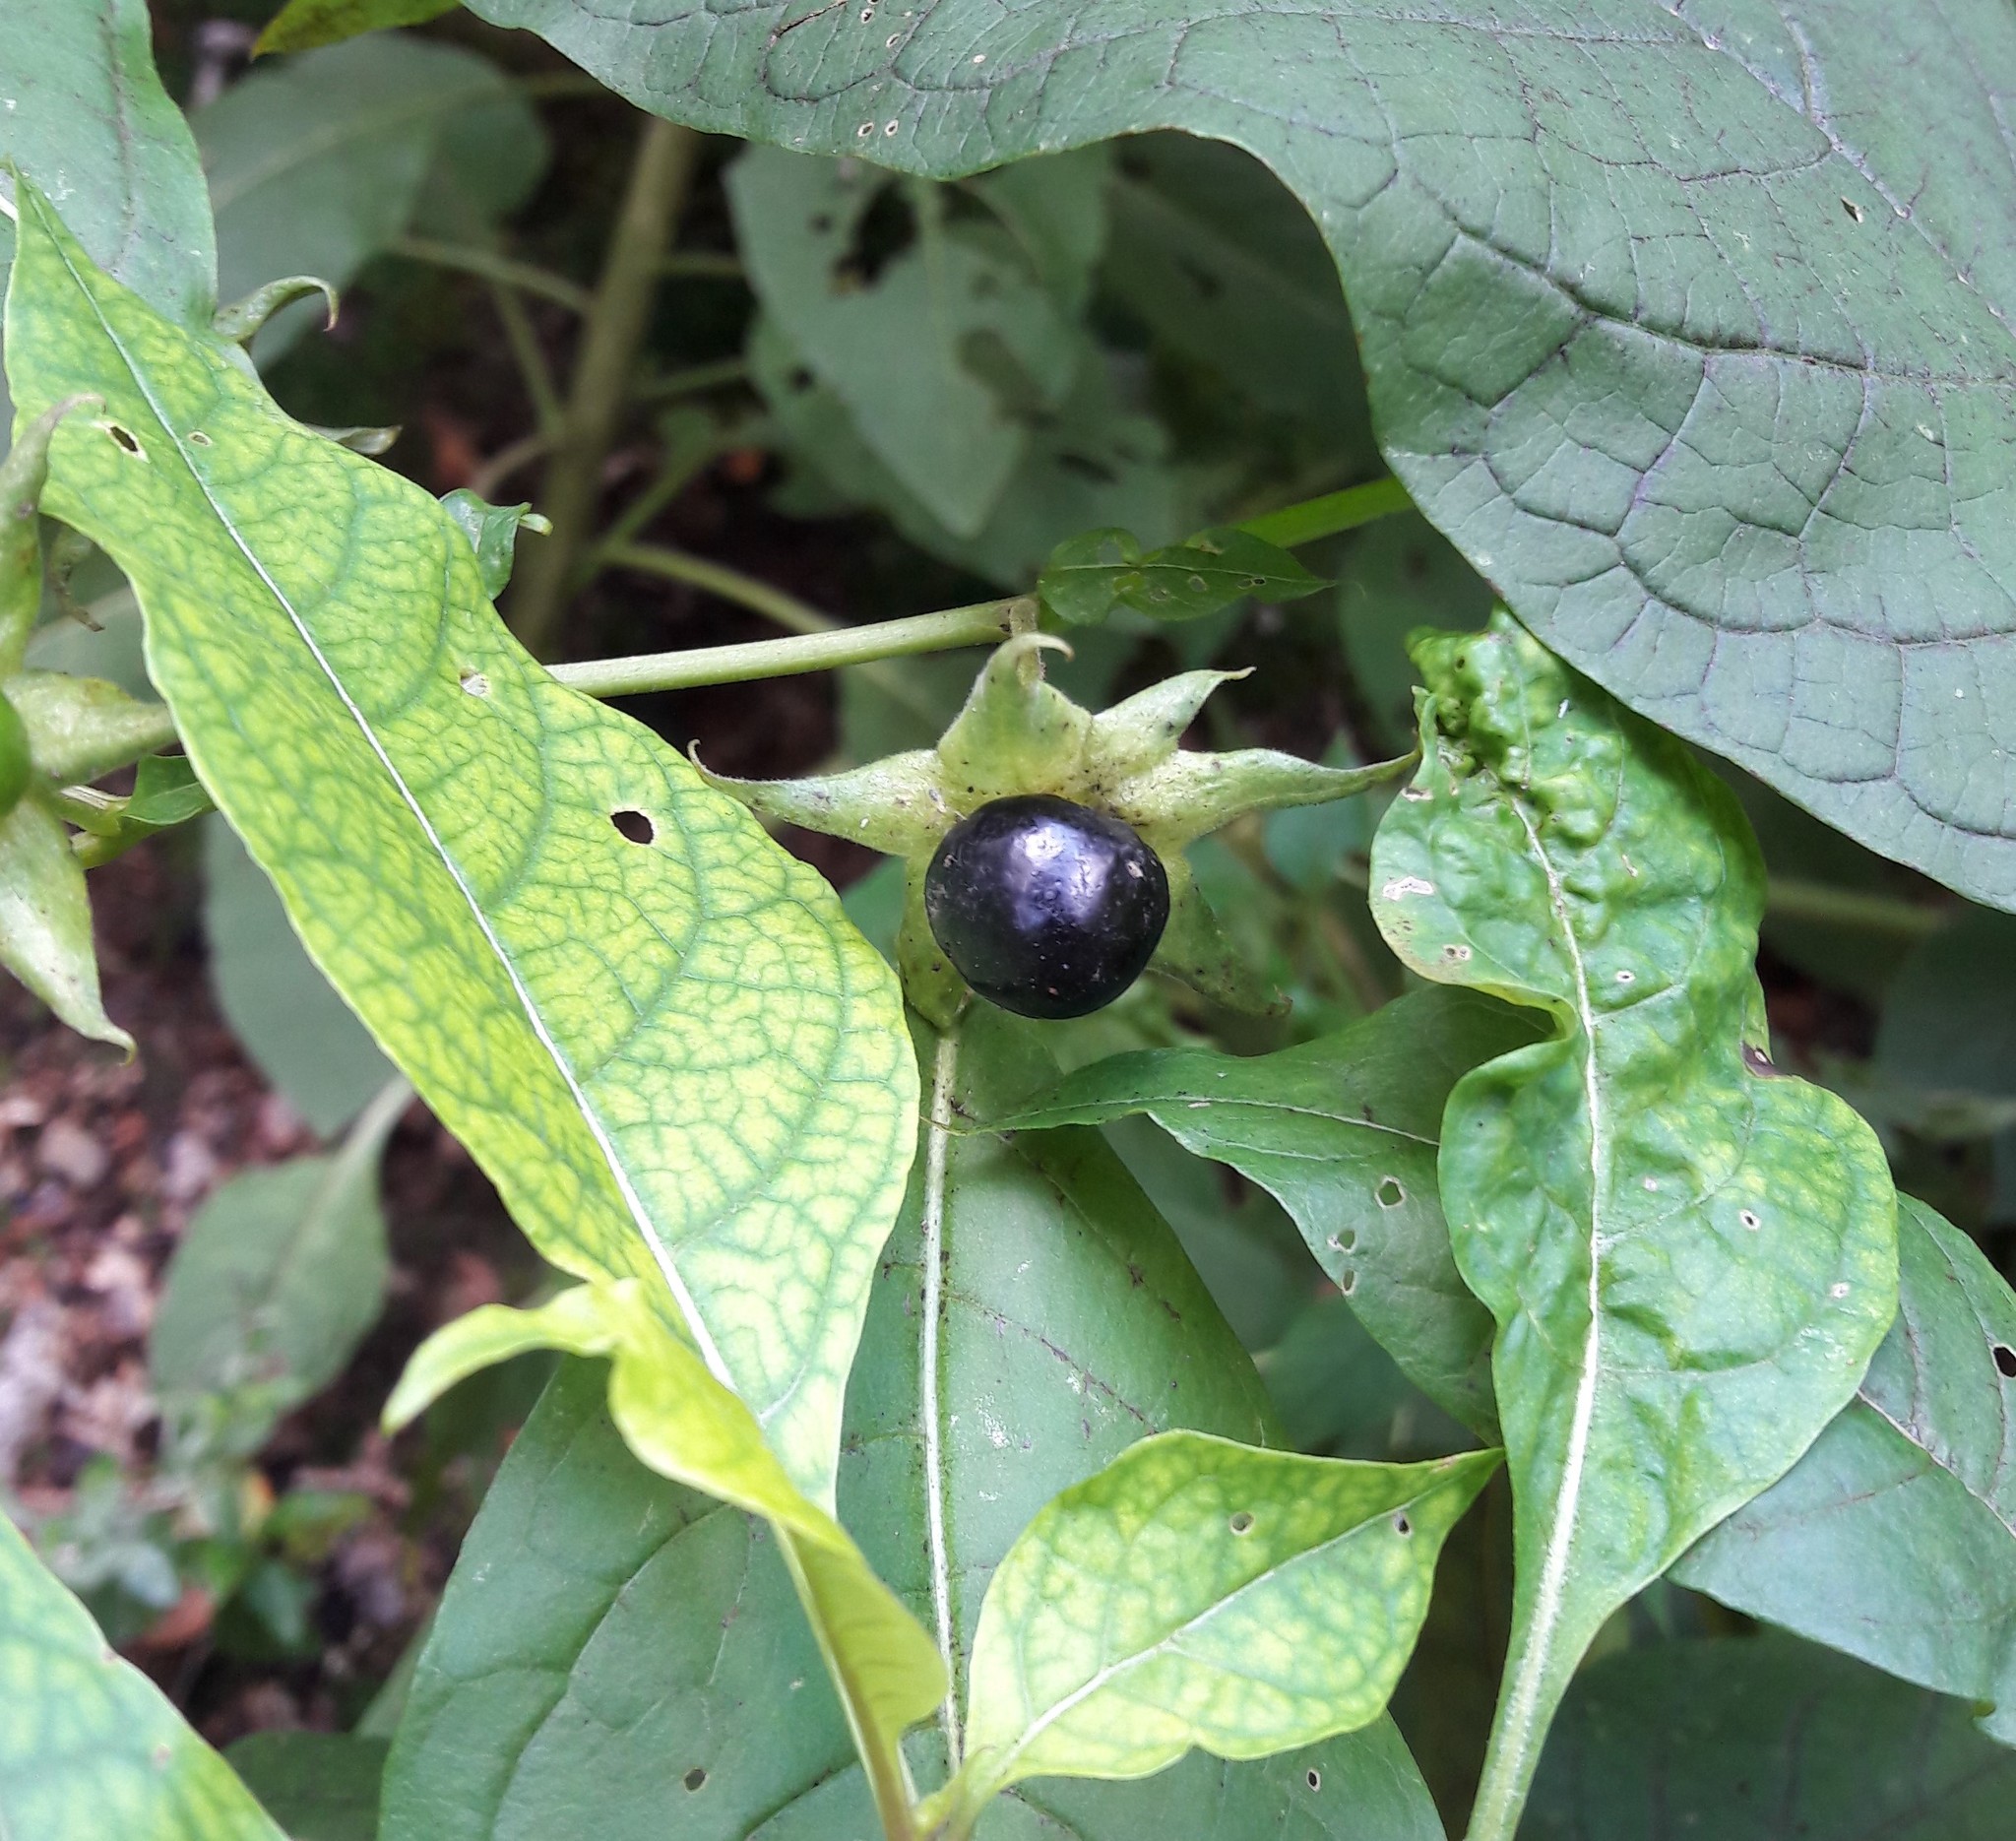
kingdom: Plantae
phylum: Tracheophyta
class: Magnoliopsida
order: Solanales
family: Solanaceae
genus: Atropa
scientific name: Atropa belladonna
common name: Deadly nightshade
